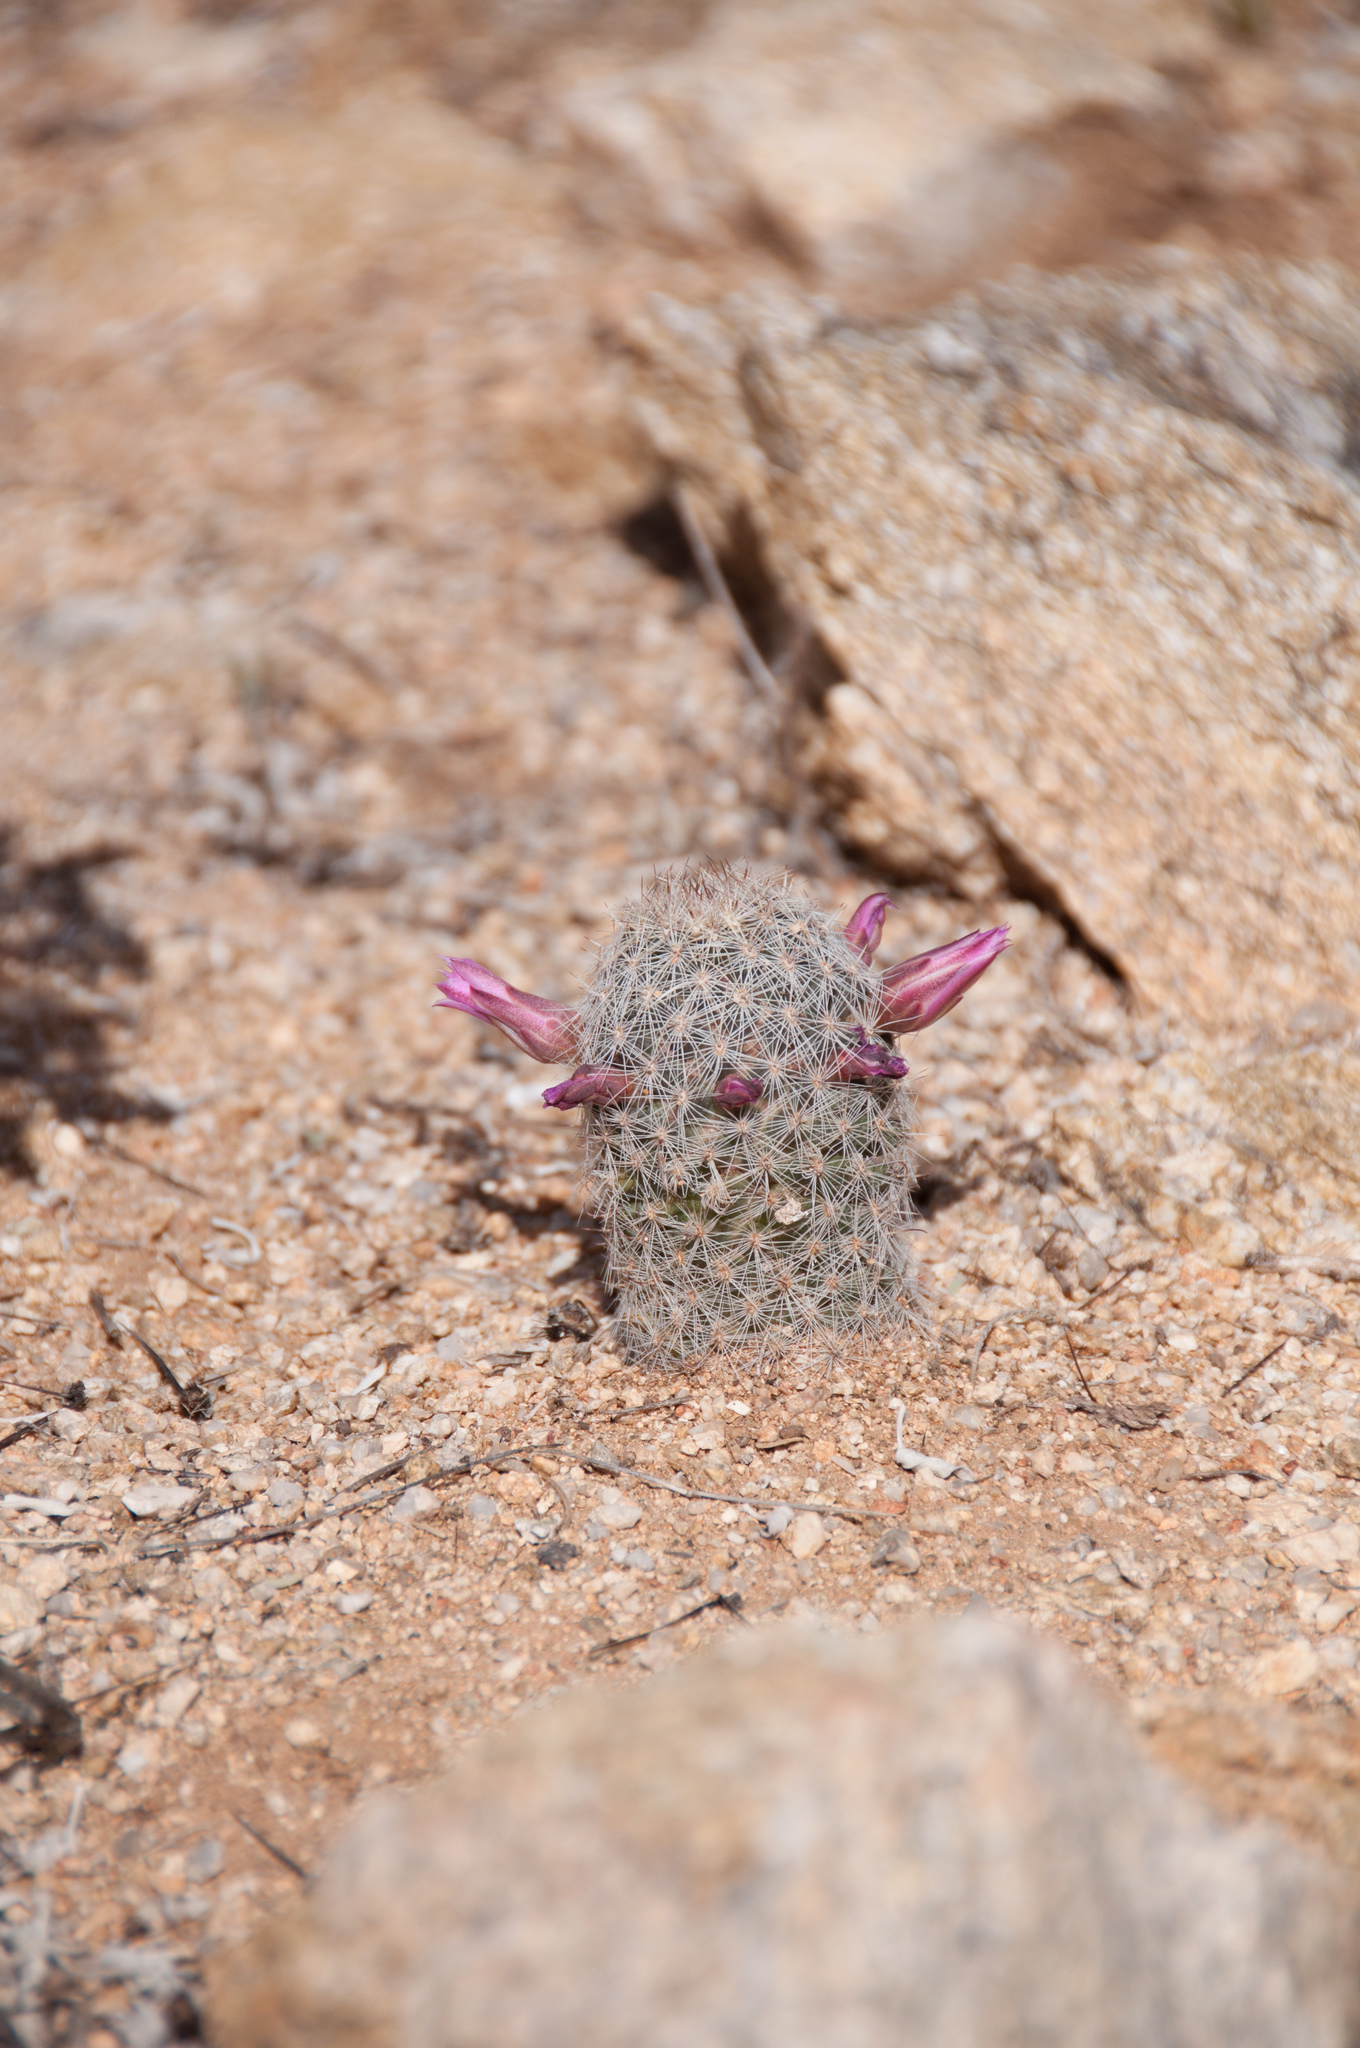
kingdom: Plantae
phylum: Tracheophyta
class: Magnoliopsida
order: Caryophyllales
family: Cactaceae
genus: Cochemiea
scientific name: Cochemiea grahamii
